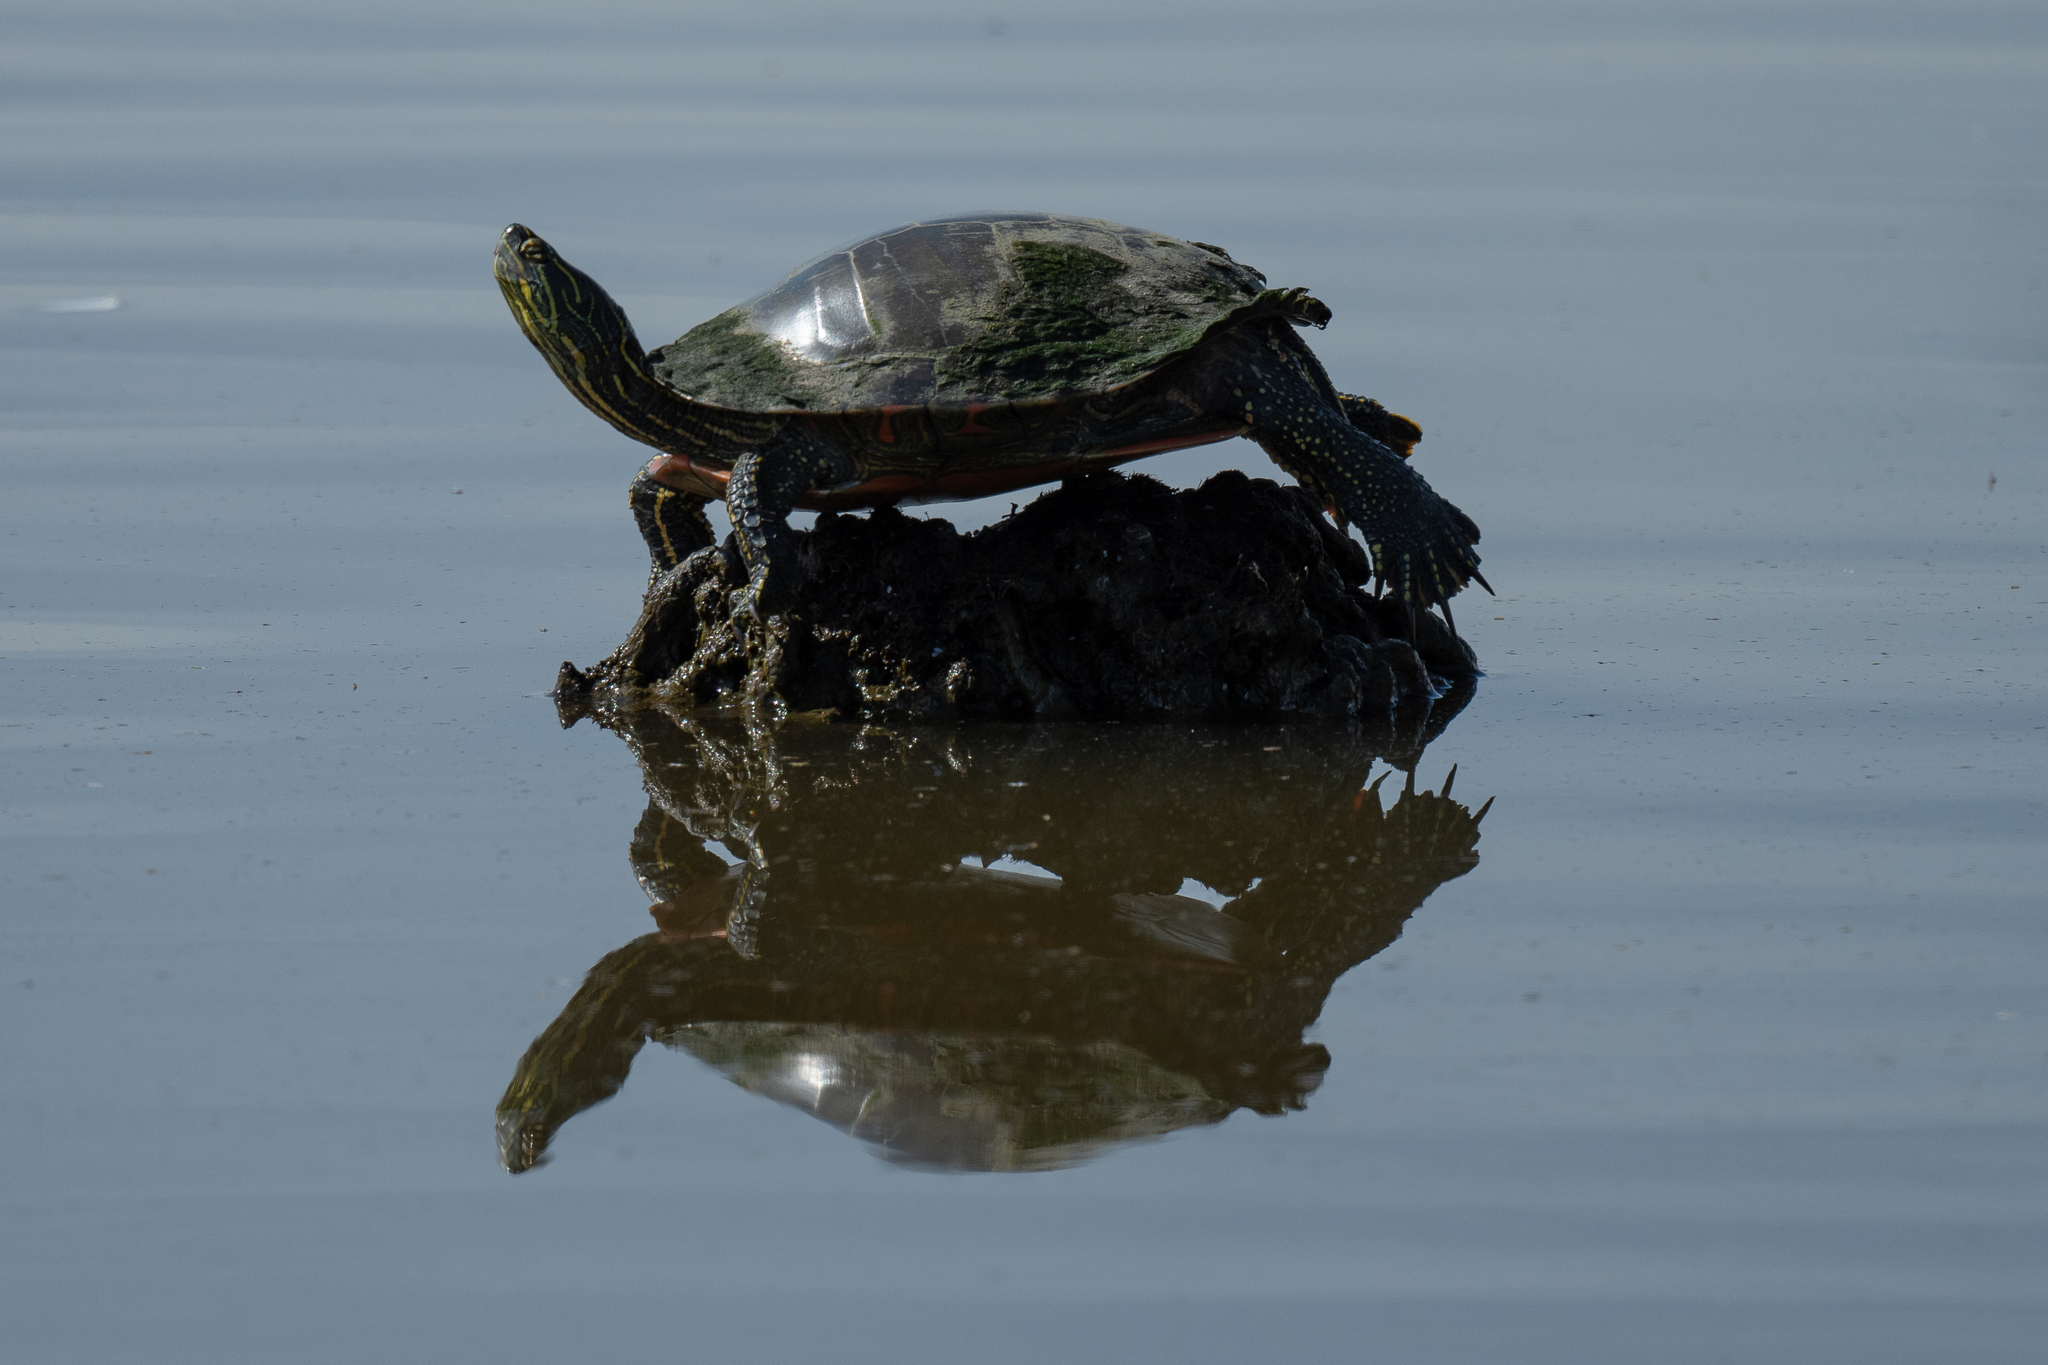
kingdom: Animalia
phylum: Chordata
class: Testudines
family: Emydidae
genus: Chrysemys
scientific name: Chrysemys picta
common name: Painted turtle
